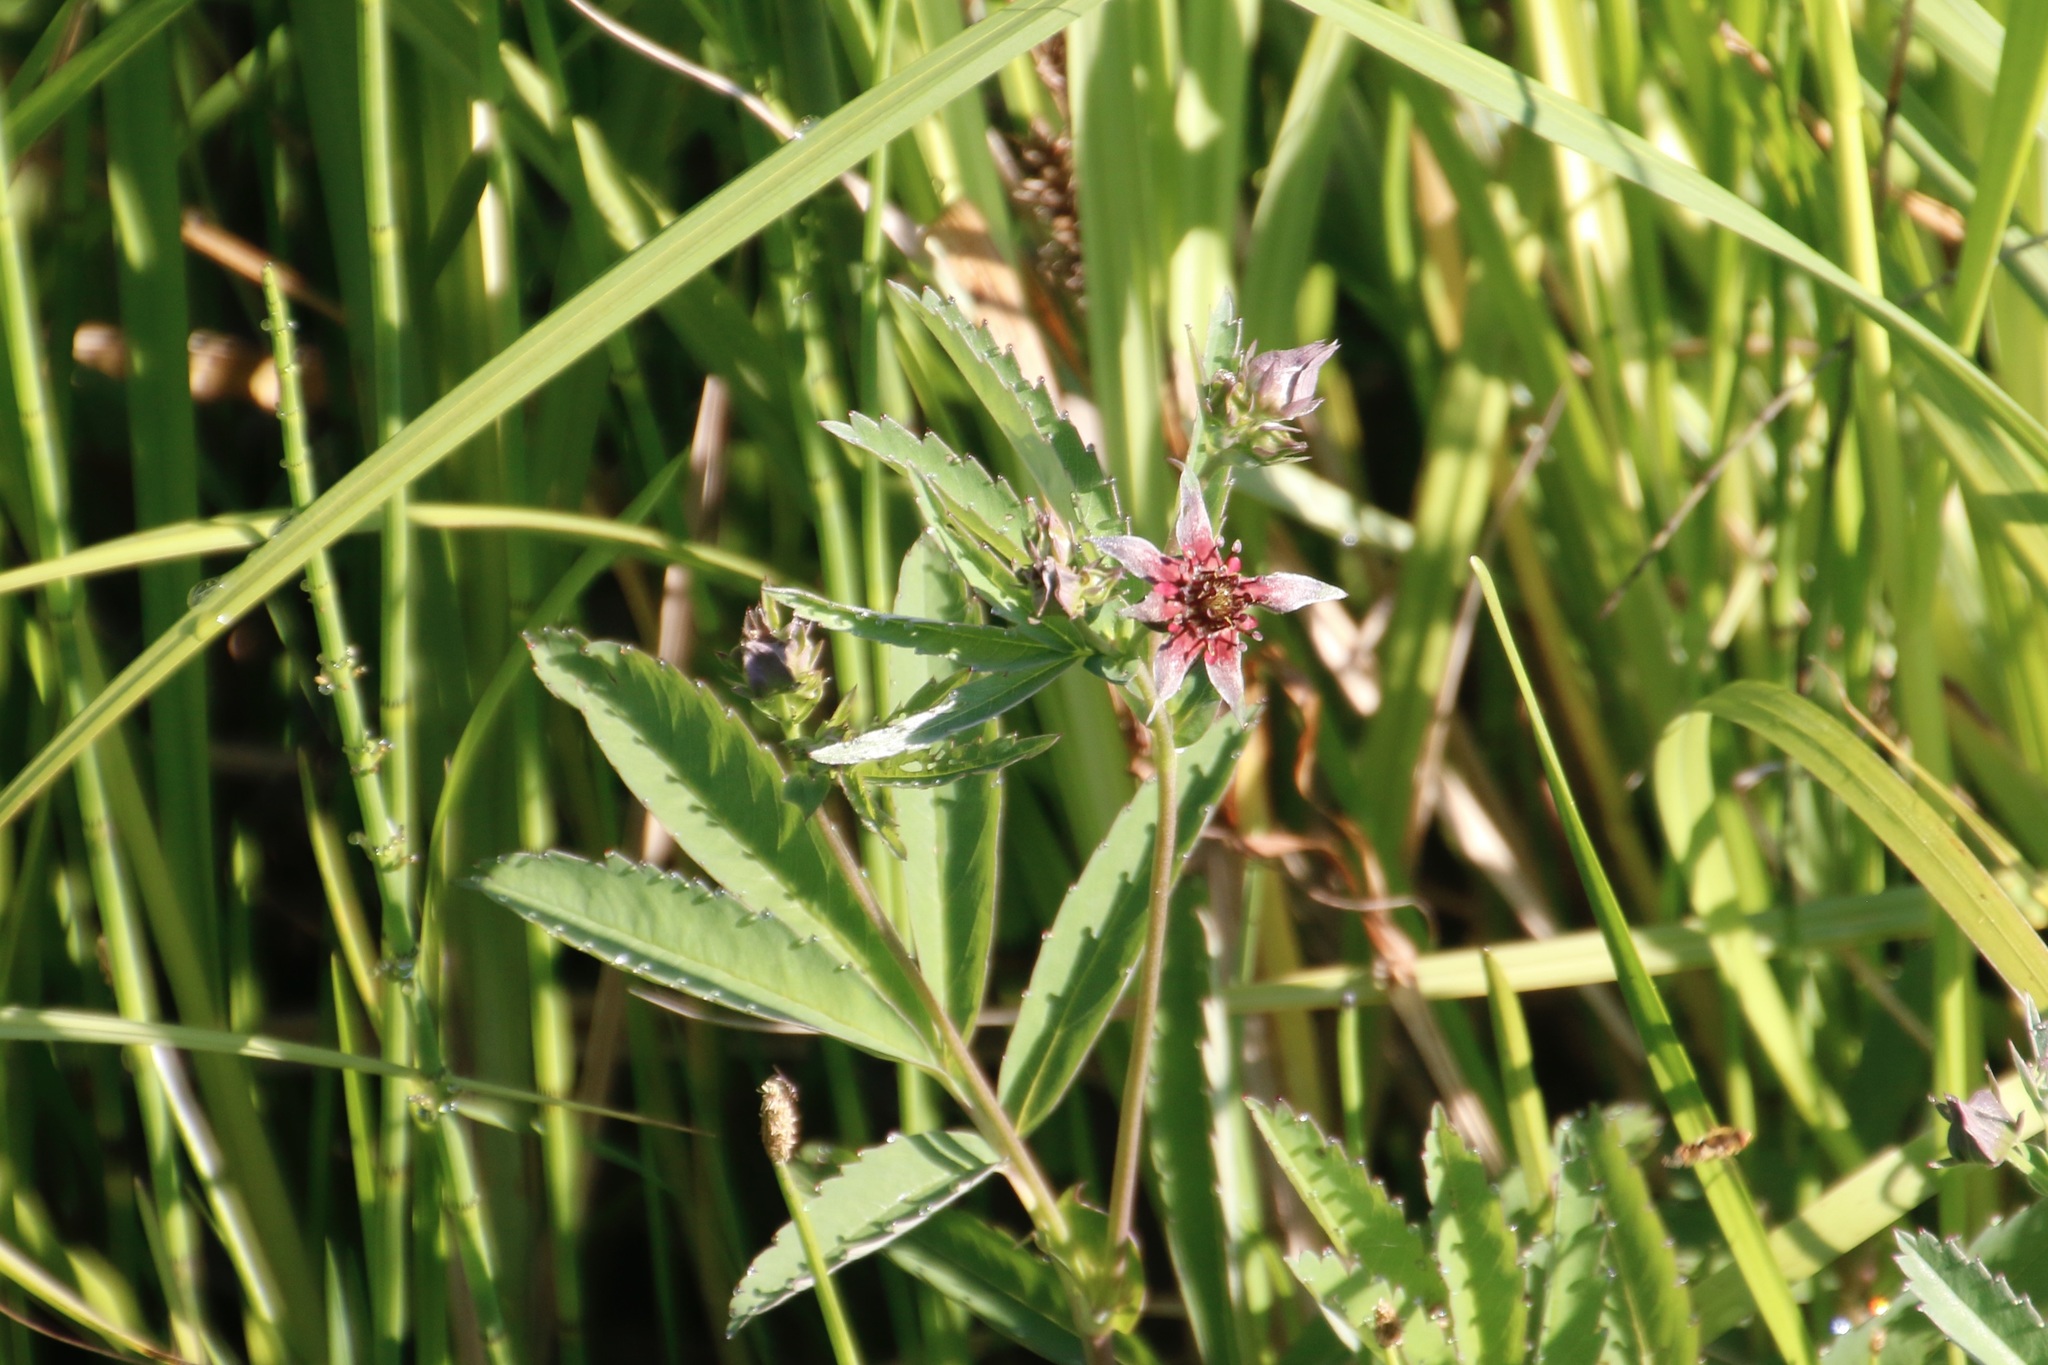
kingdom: Plantae
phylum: Tracheophyta
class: Magnoliopsida
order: Rosales
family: Rosaceae
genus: Comarum
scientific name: Comarum palustre
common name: Marsh cinquefoil
